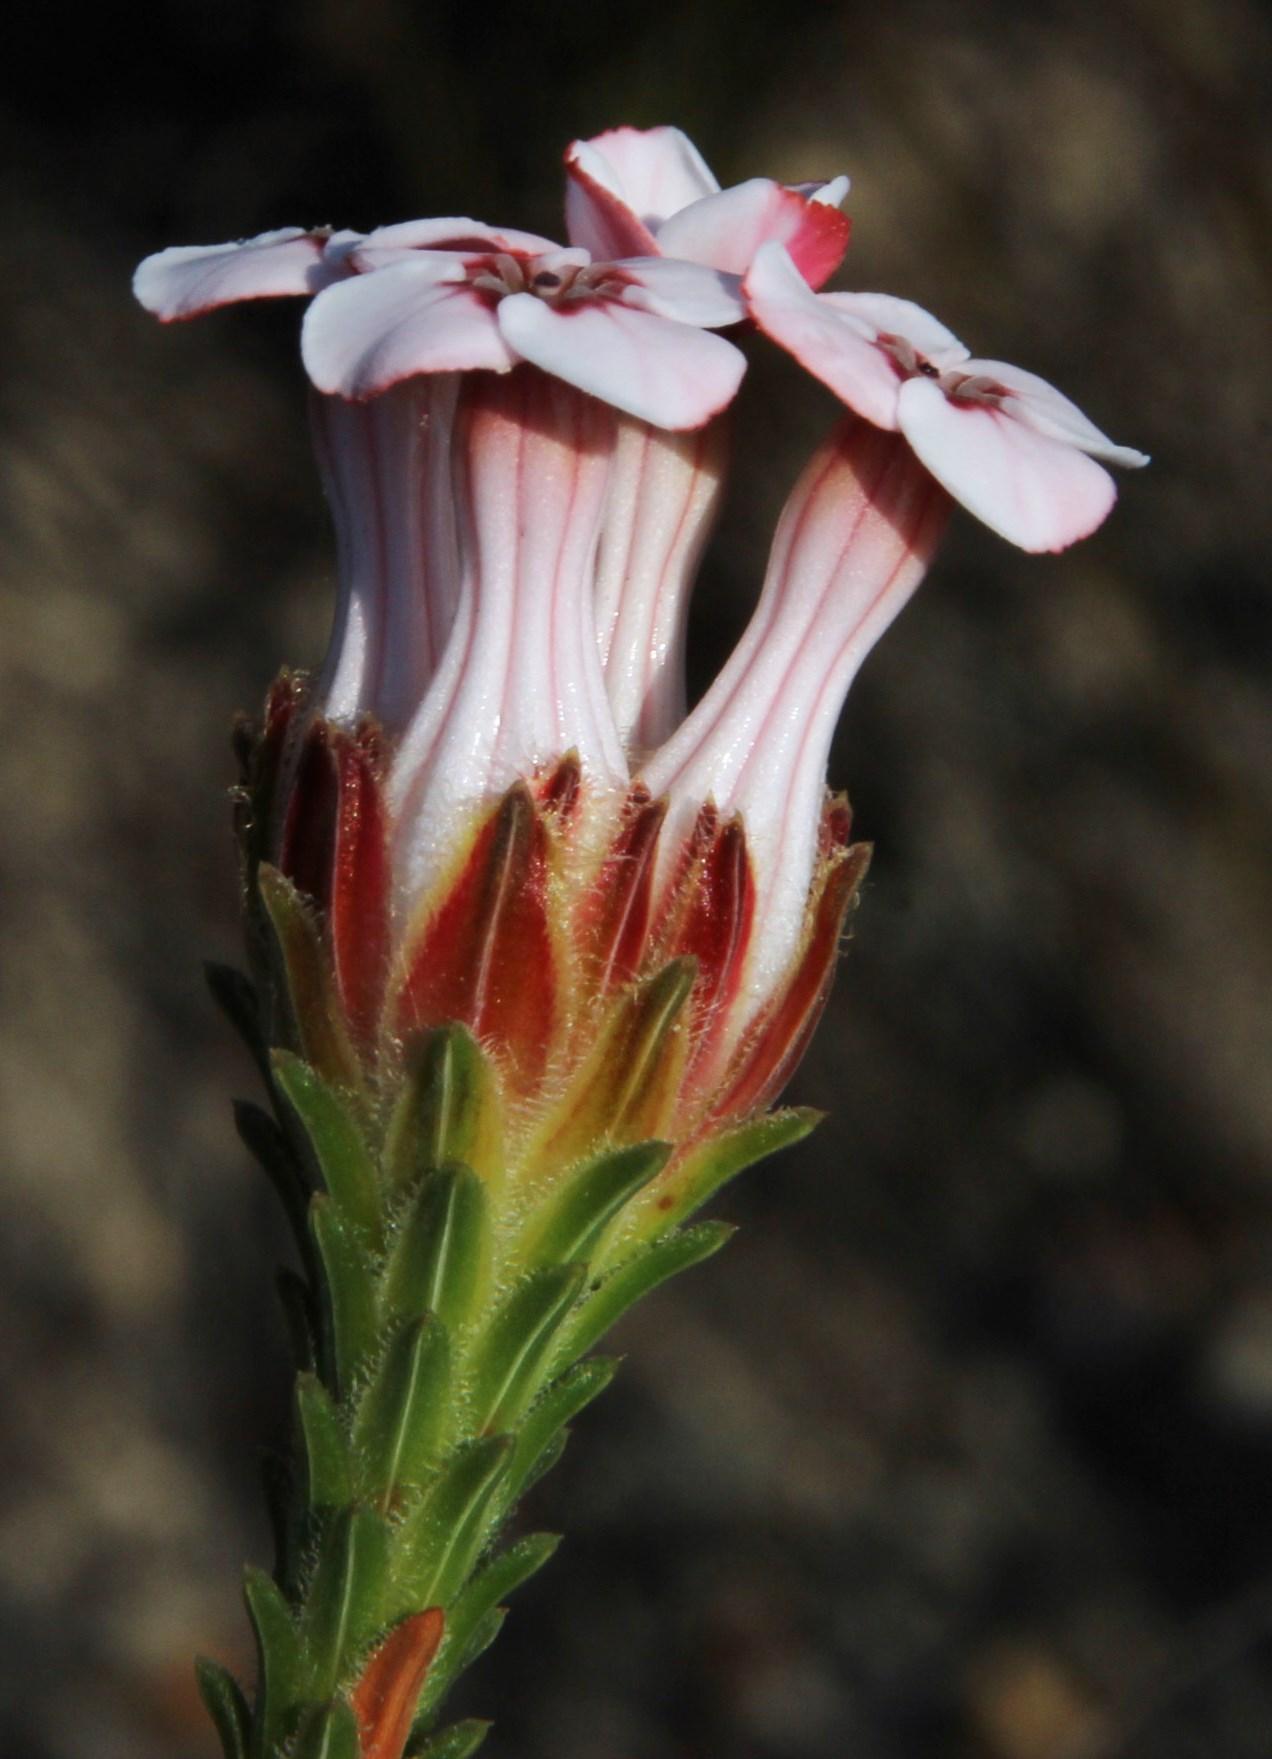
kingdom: Plantae
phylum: Tracheophyta
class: Magnoliopsida
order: Ericales
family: Ericaceae
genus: Erica
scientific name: Erica ampullacea
